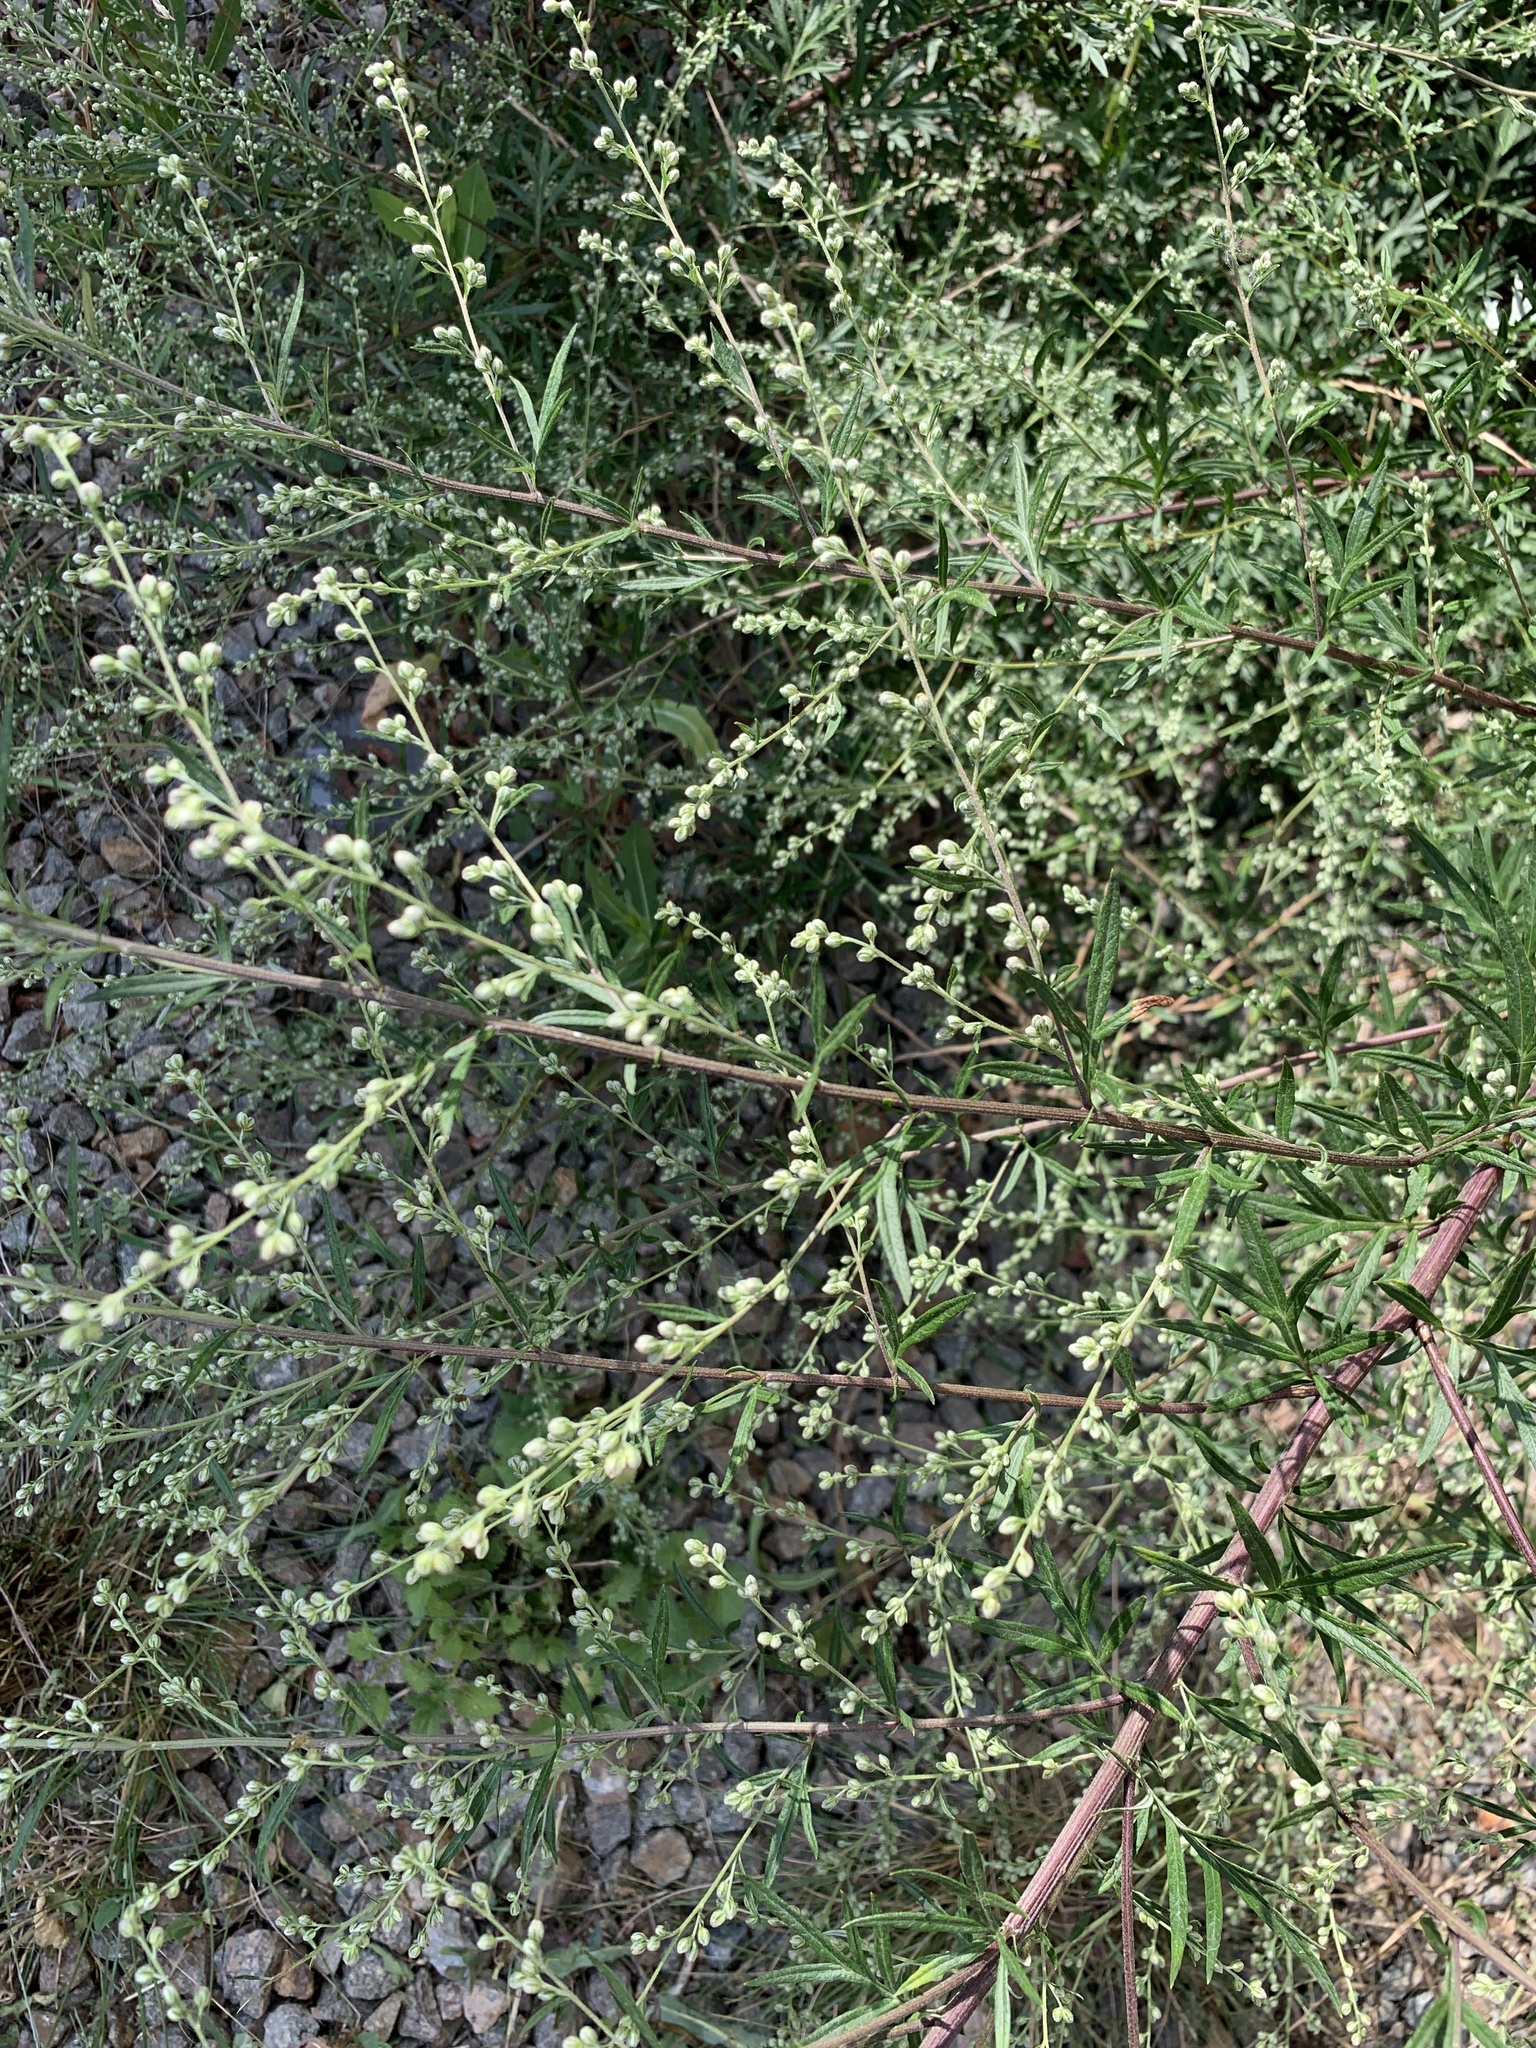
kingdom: Plantae
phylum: Tracheophyta
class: Magnoliopsida
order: Asterales
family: Asteraceae
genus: Artemisia
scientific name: Artemisia vulgaris
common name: Mugwort
